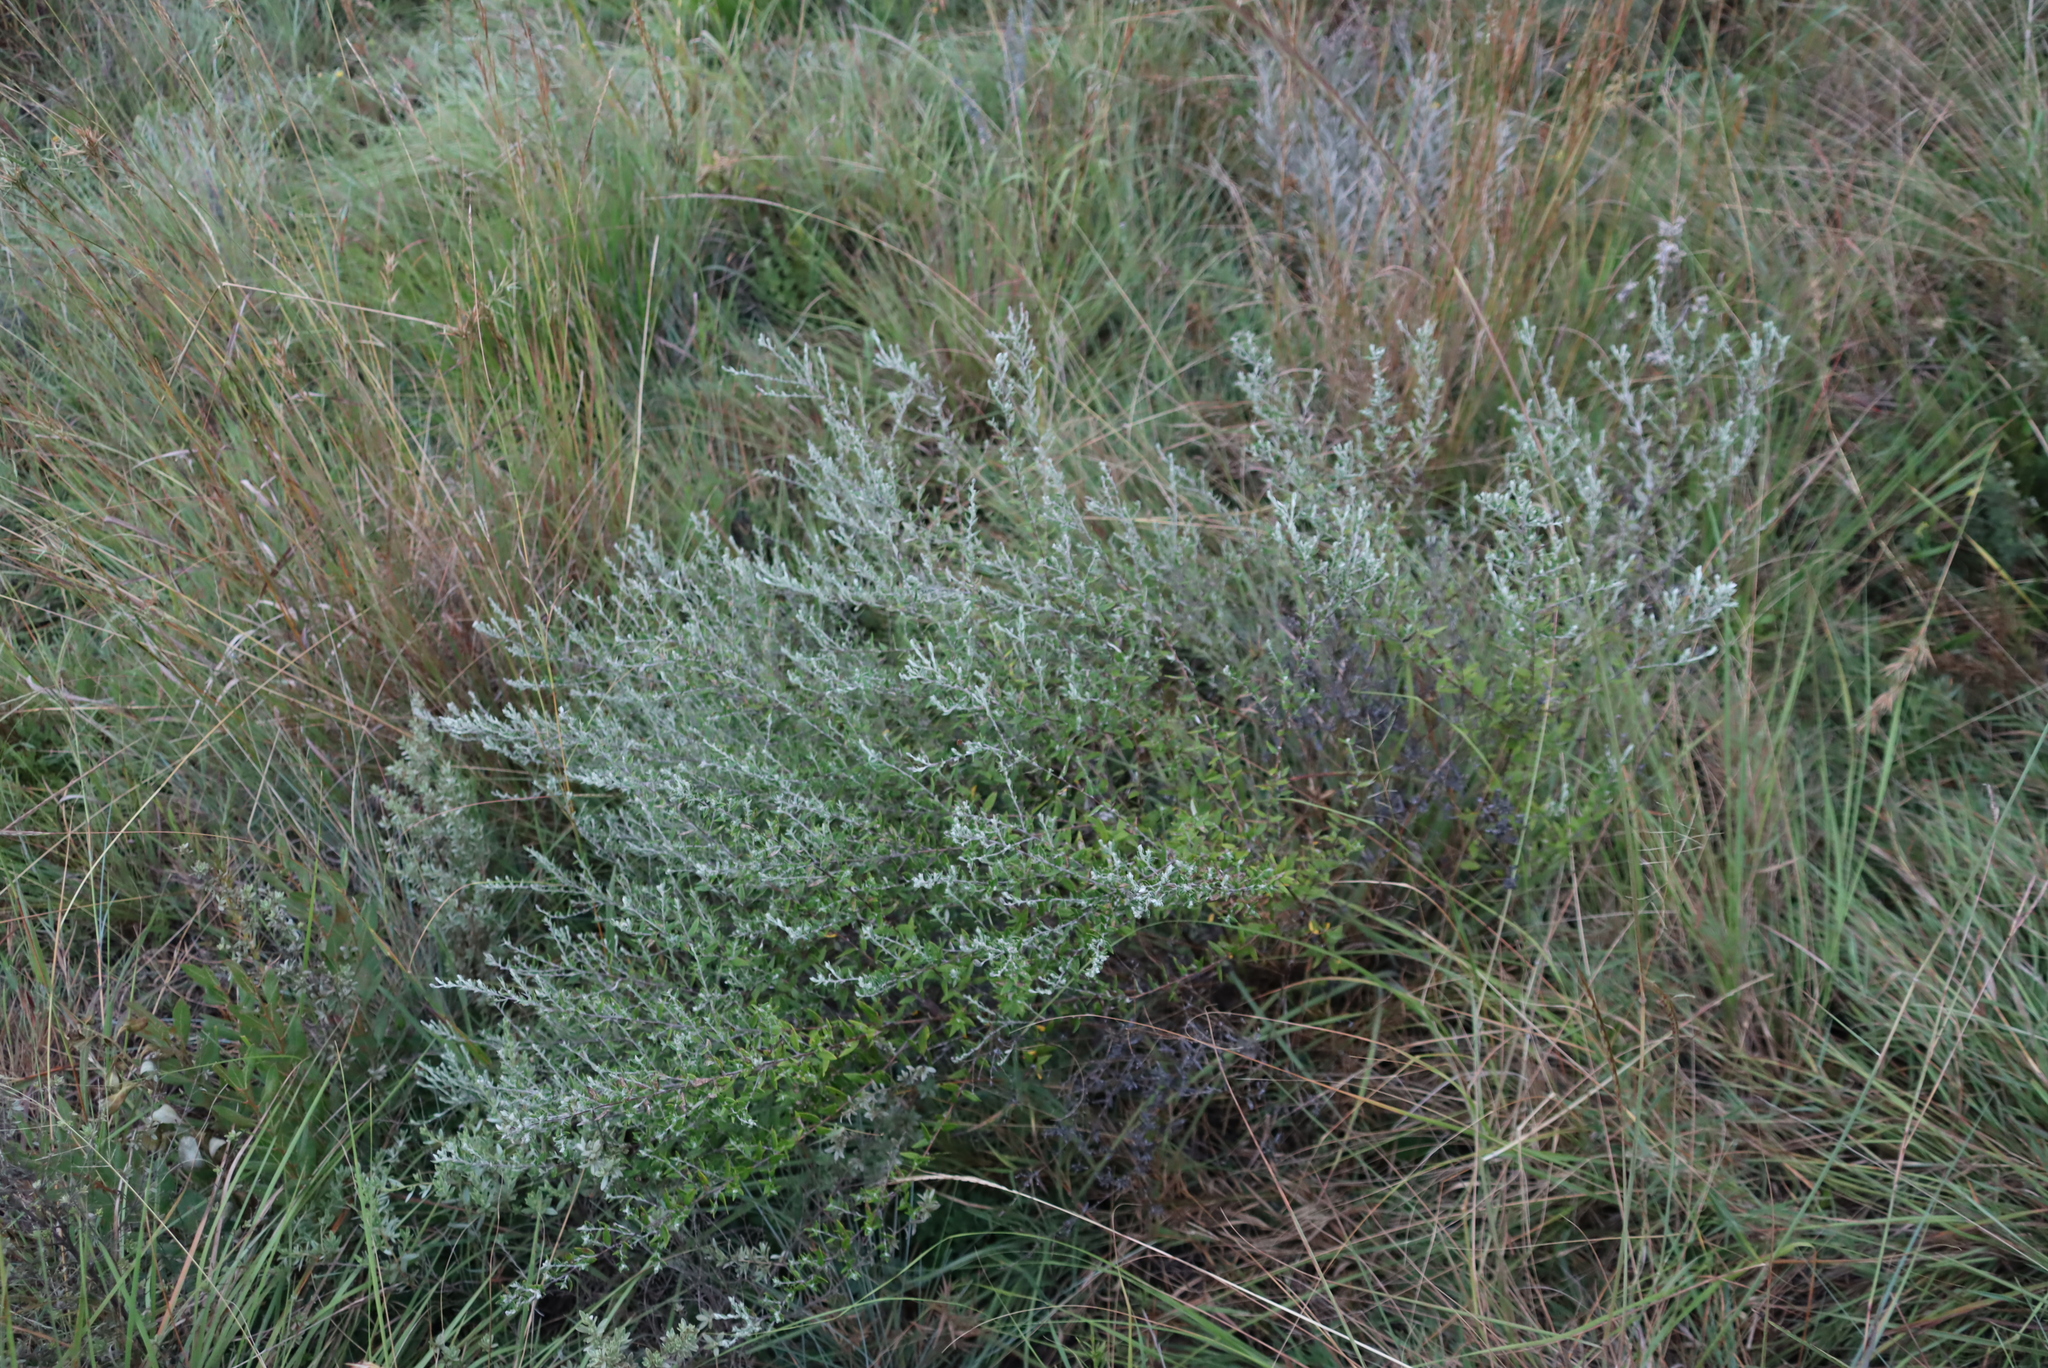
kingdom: Plantae
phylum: Tracheophyta
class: Magnoliopsida
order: Asterales
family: Asteraceae
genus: Athrixia
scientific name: Athrixia phylicoides
